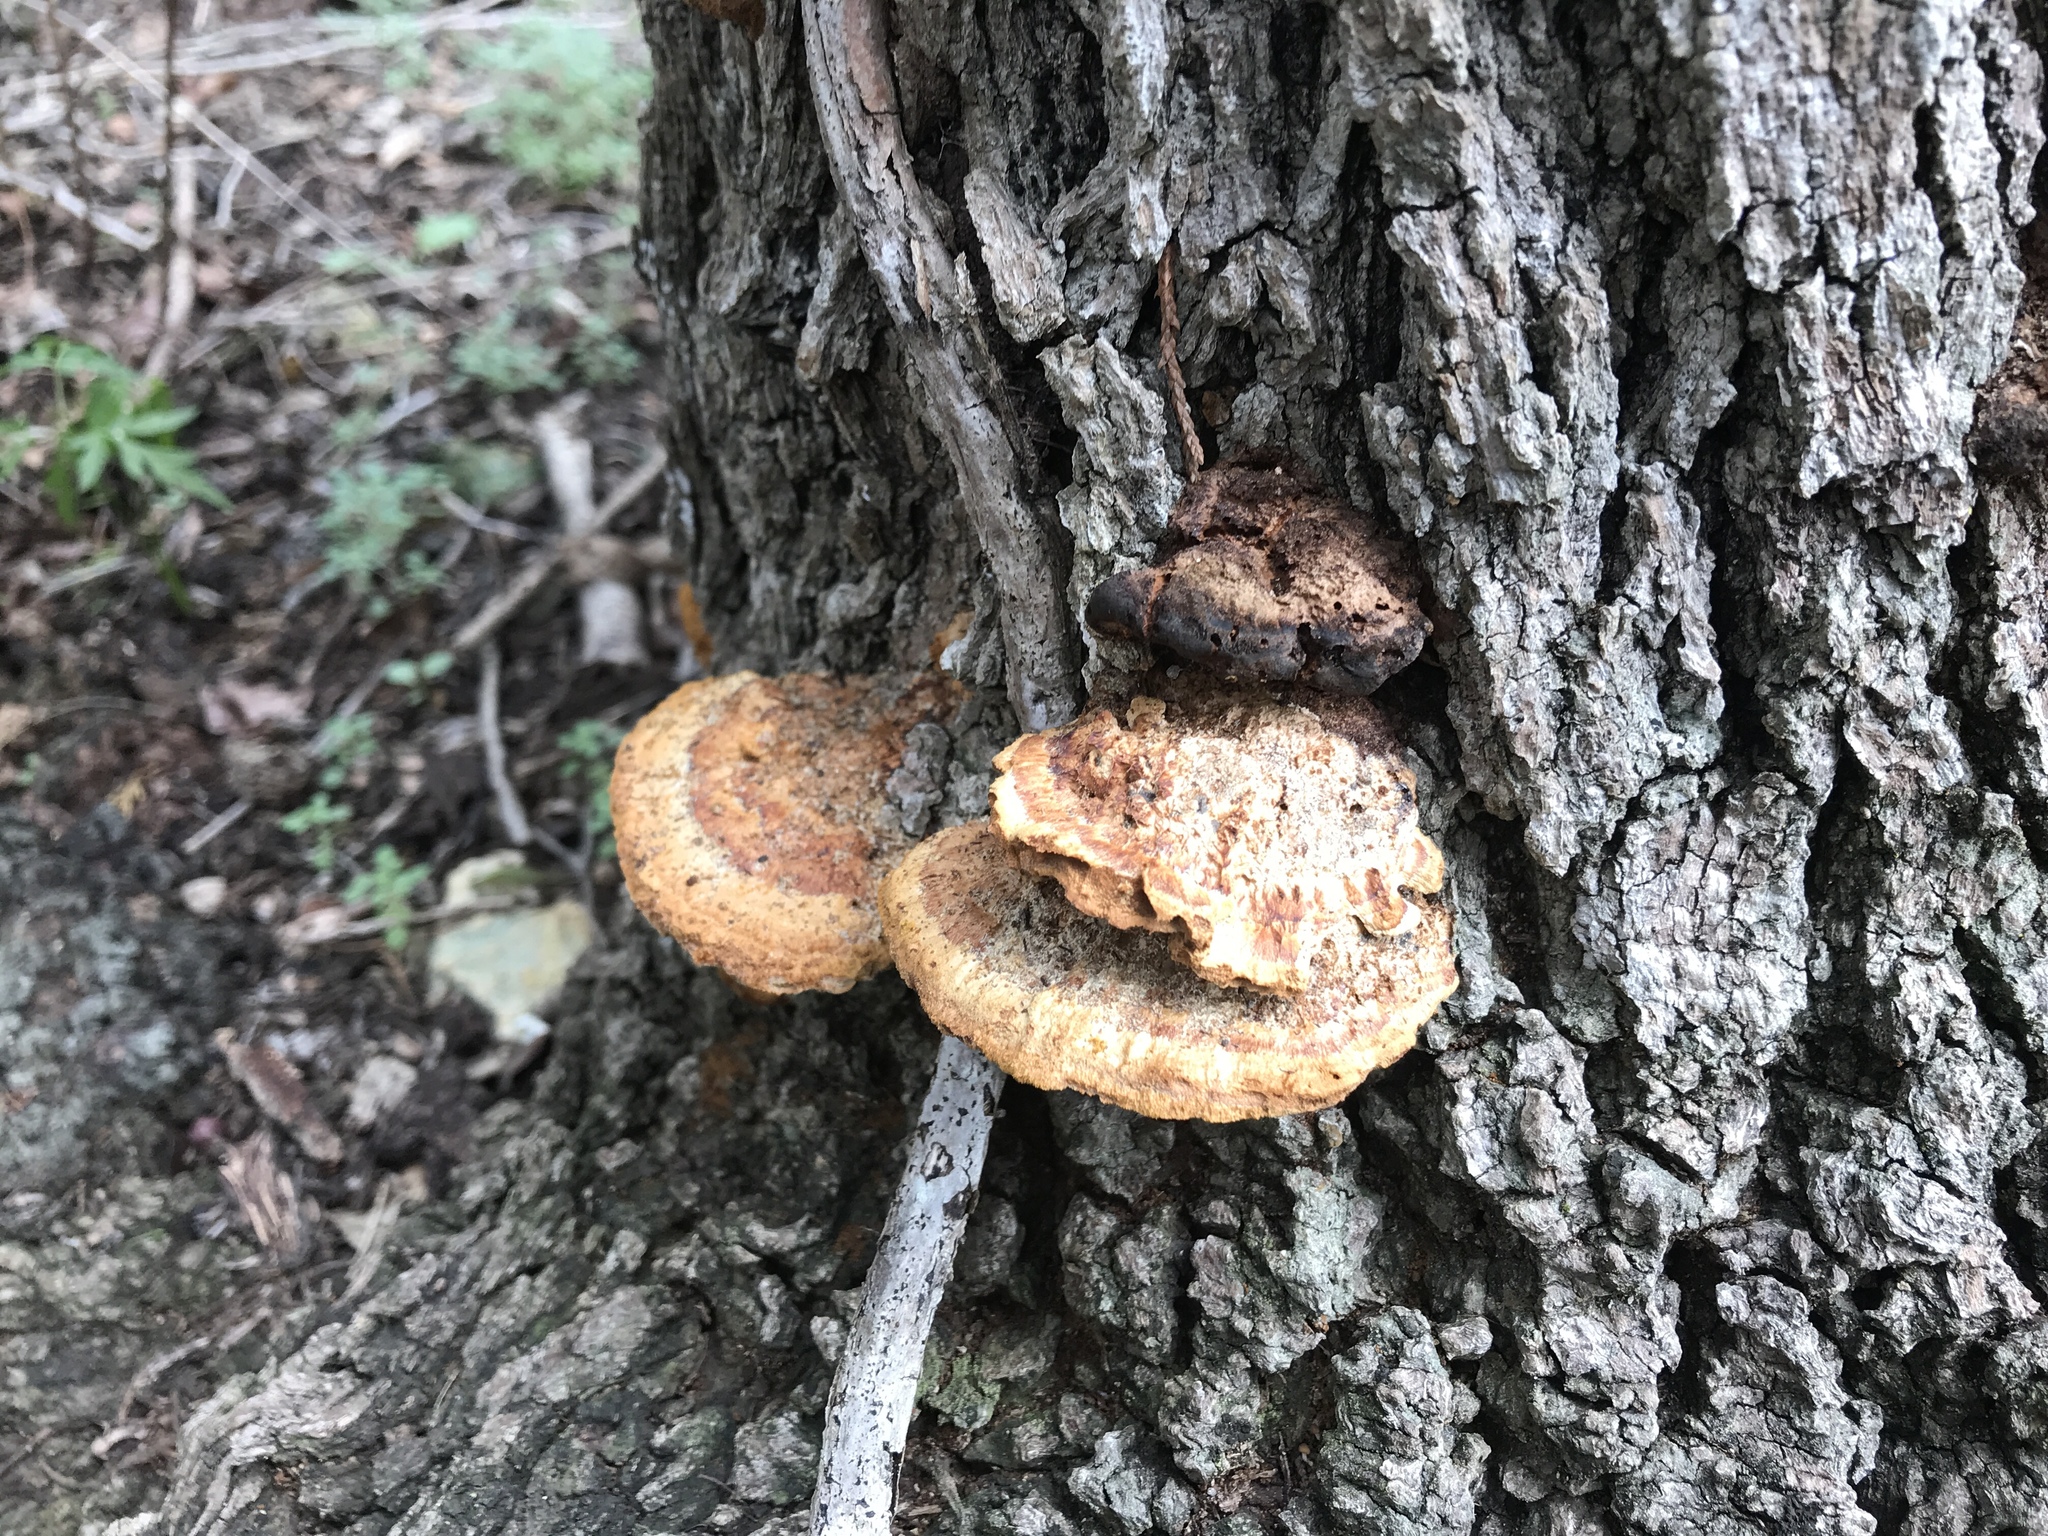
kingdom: Fungi
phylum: Basidiomycota
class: Agaricomycetes
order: Hymenochaetales
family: Hymenochaetaceae
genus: Phellinus
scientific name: Phellinus gilvus
